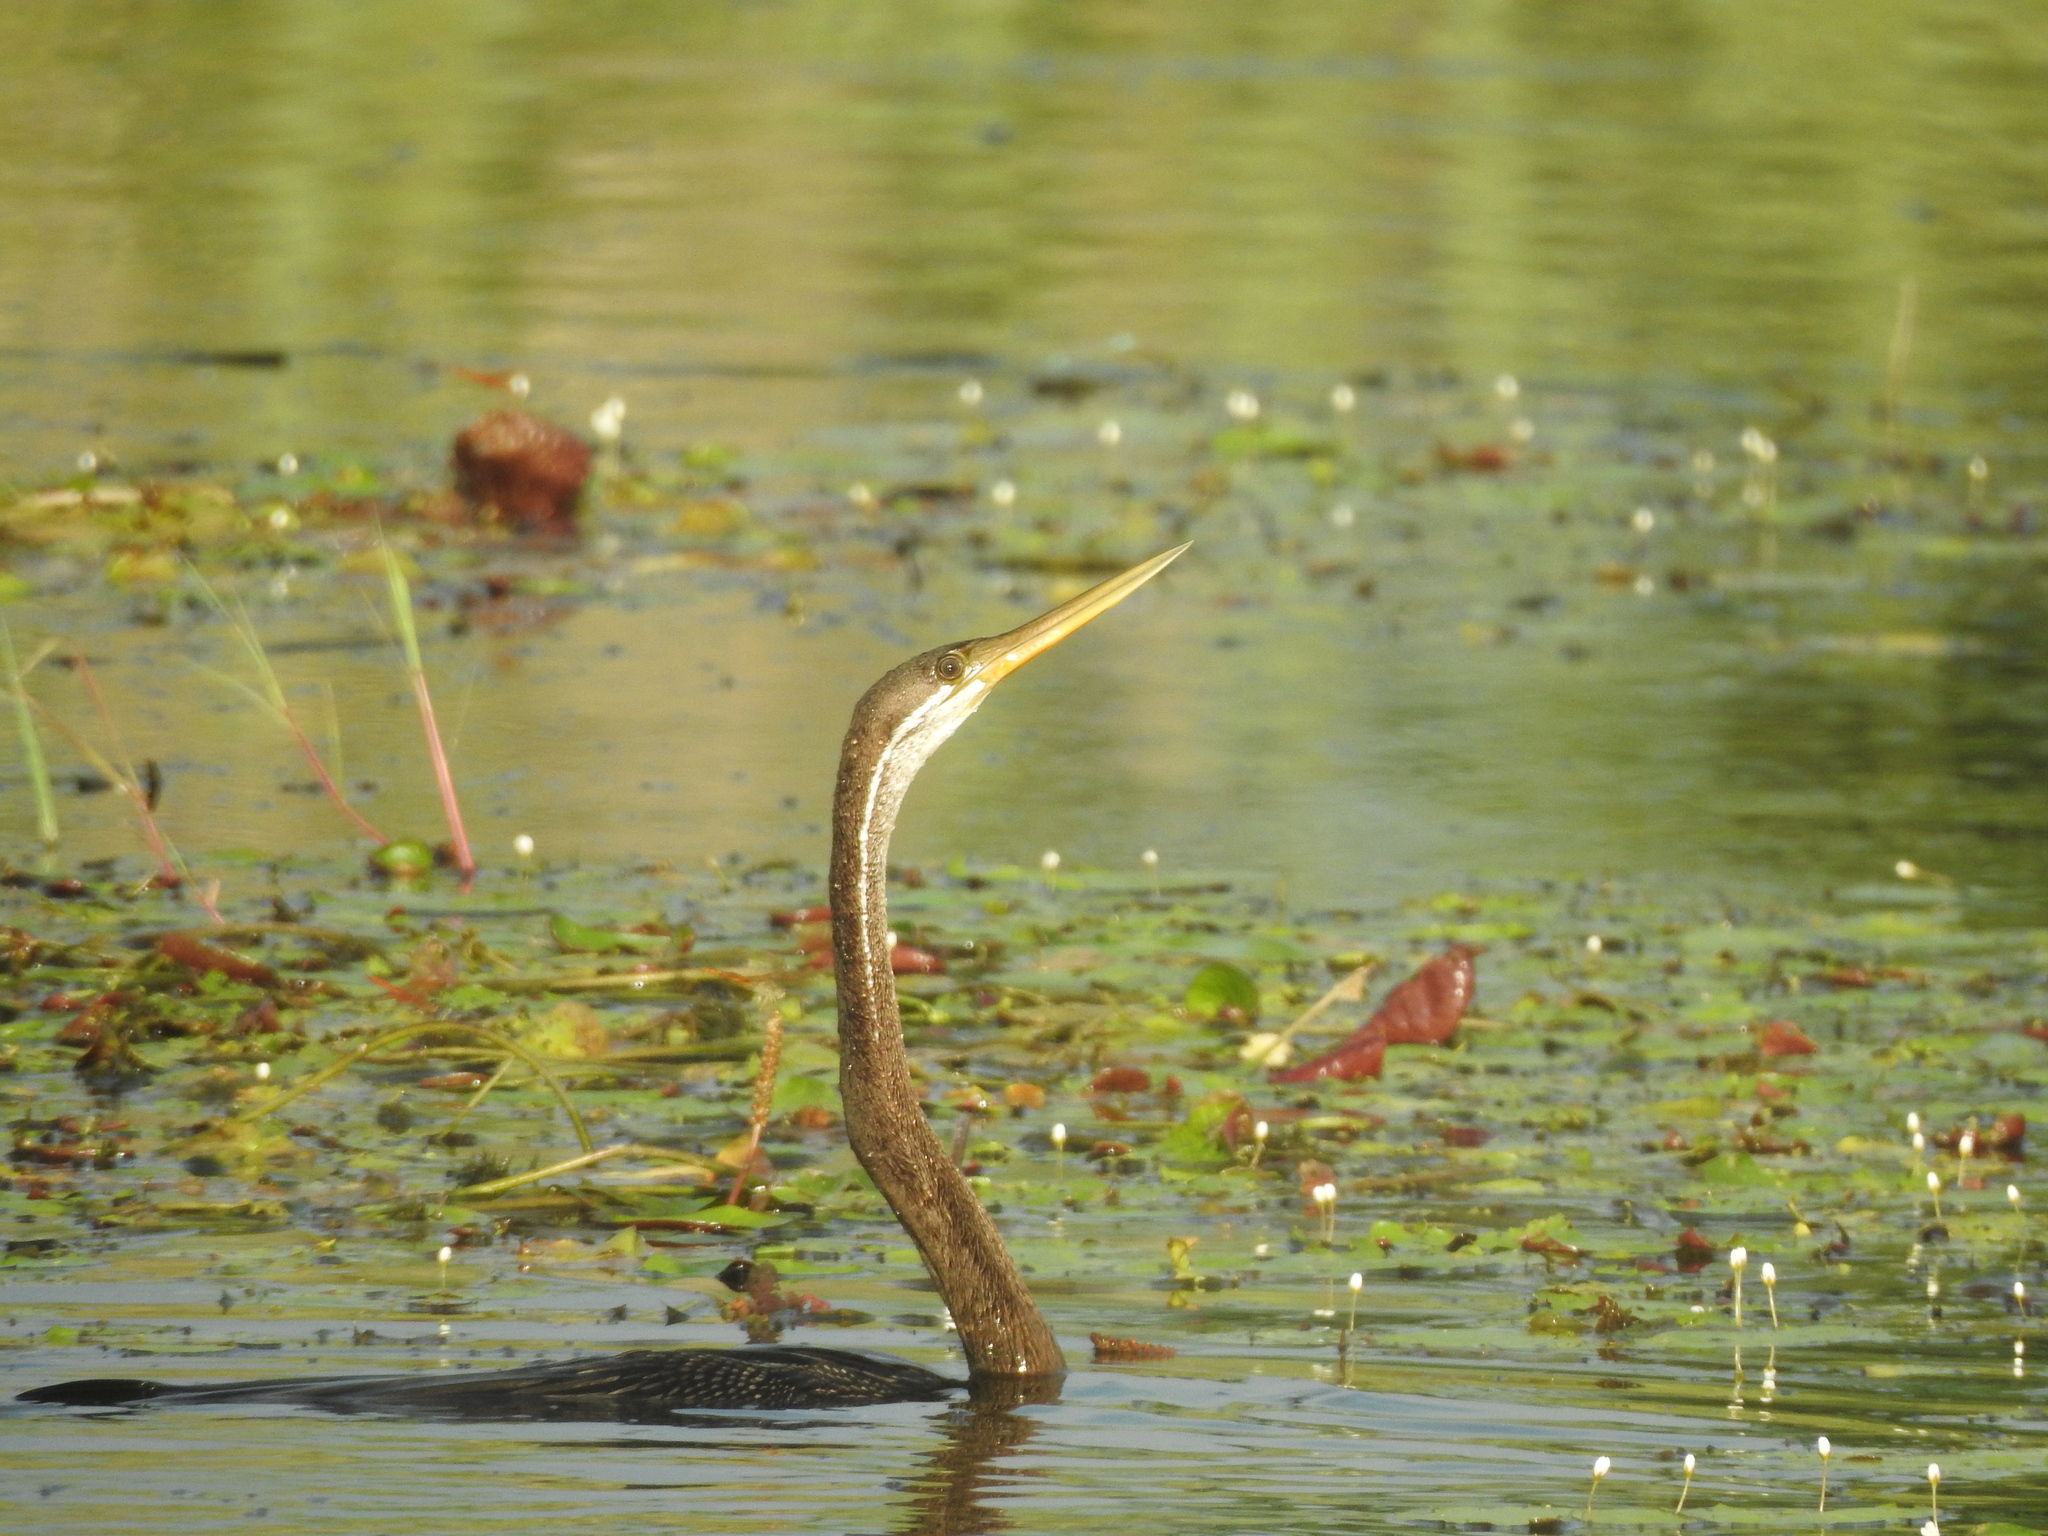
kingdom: Animalia
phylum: Chordata
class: Aves
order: Suliformes
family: Anhingidae
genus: Anhinga
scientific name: Anhinga melanogaster
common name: Oriental darter
